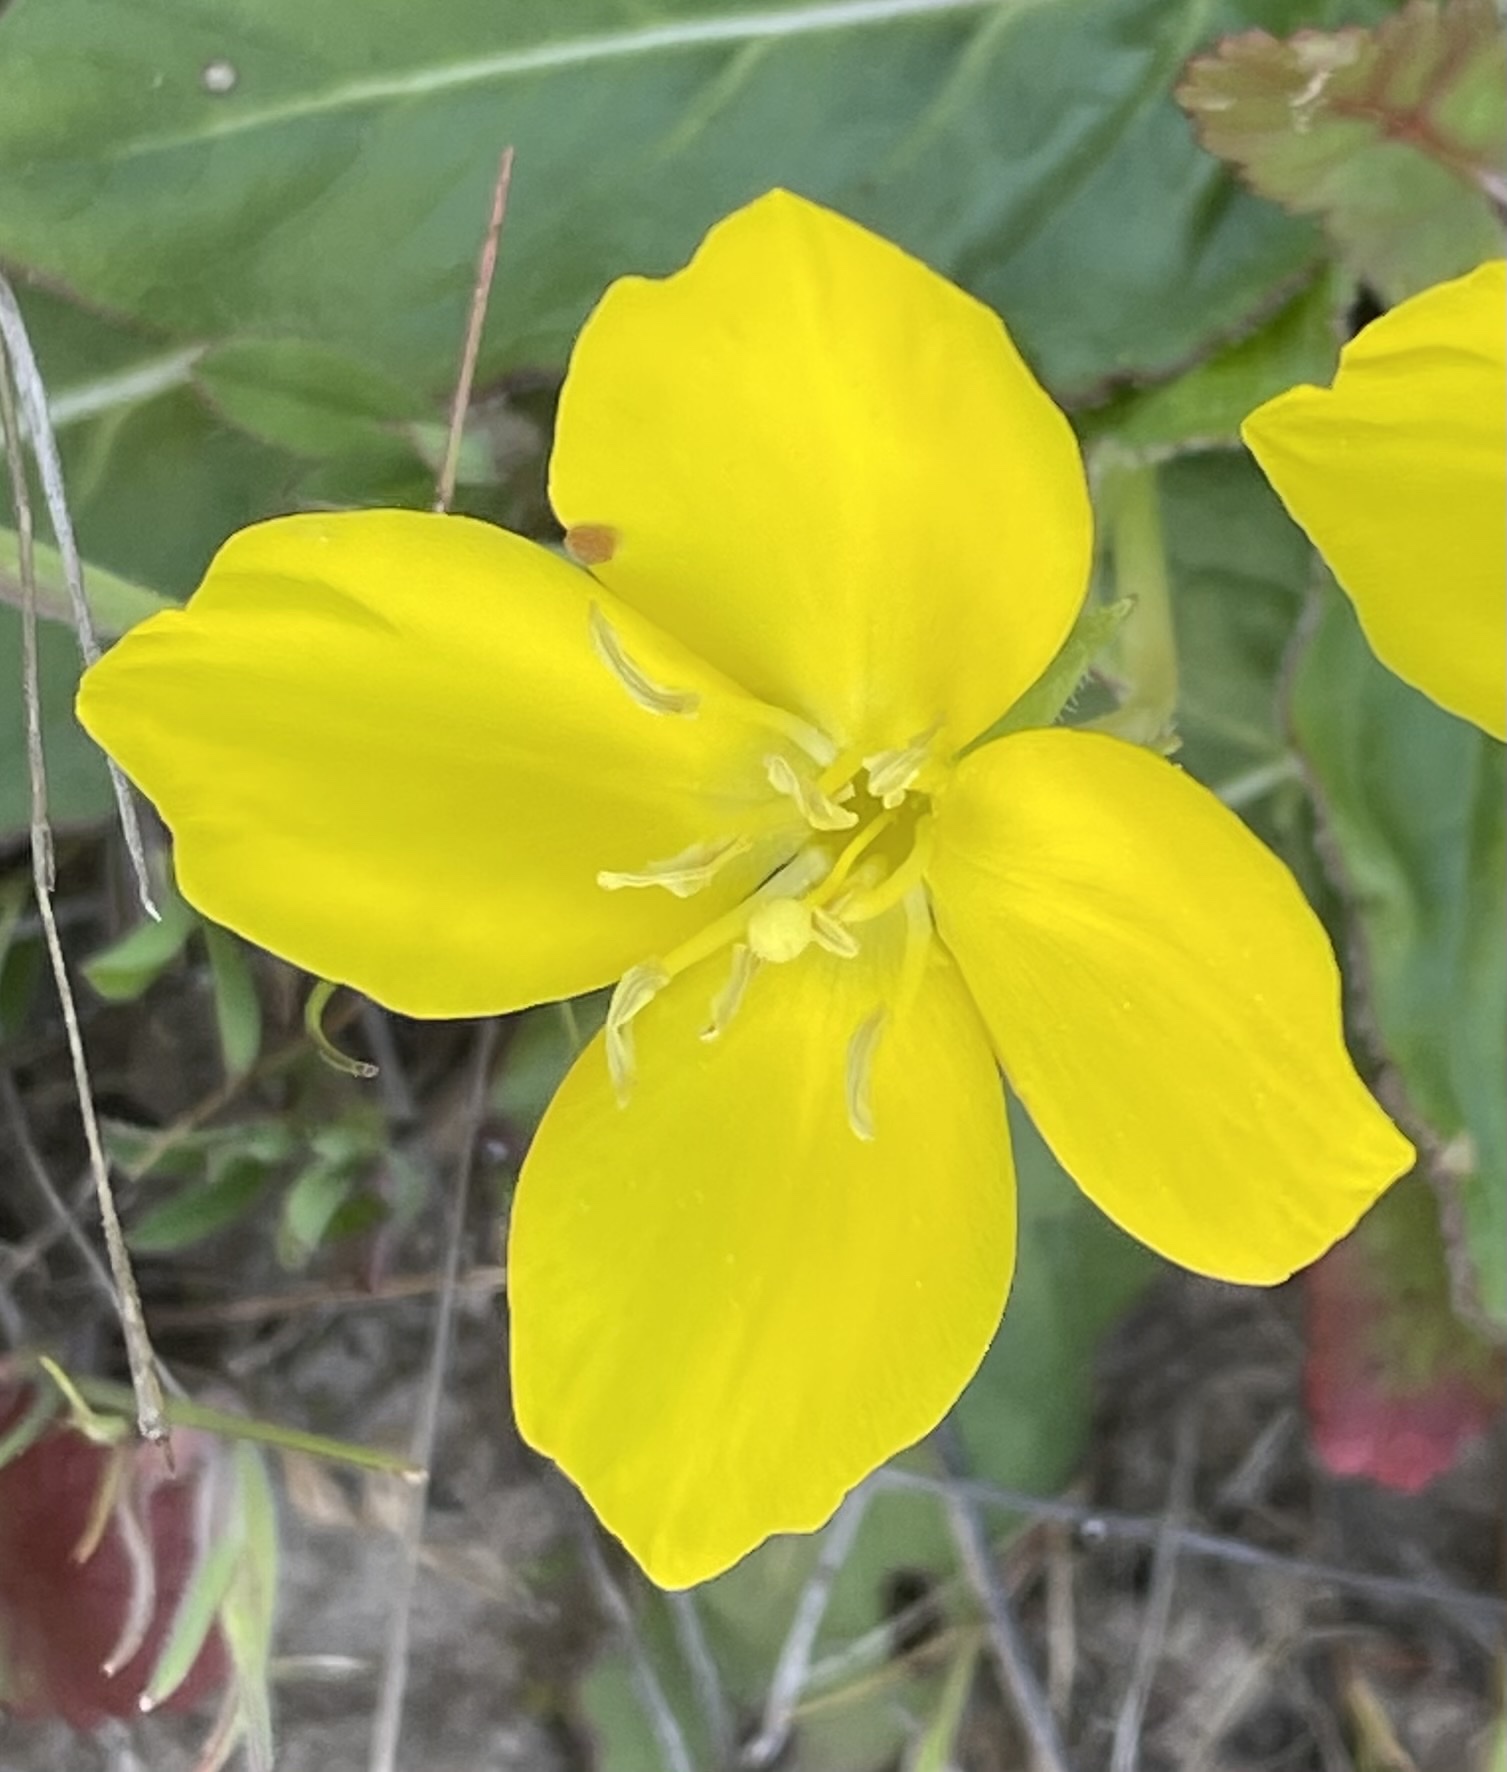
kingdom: Plantae
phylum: Tracheophyta
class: Magnoliopsida
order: Myrtales
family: Onagraceae
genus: Taraxia
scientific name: Taraxia ovata
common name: Goldeneggs
